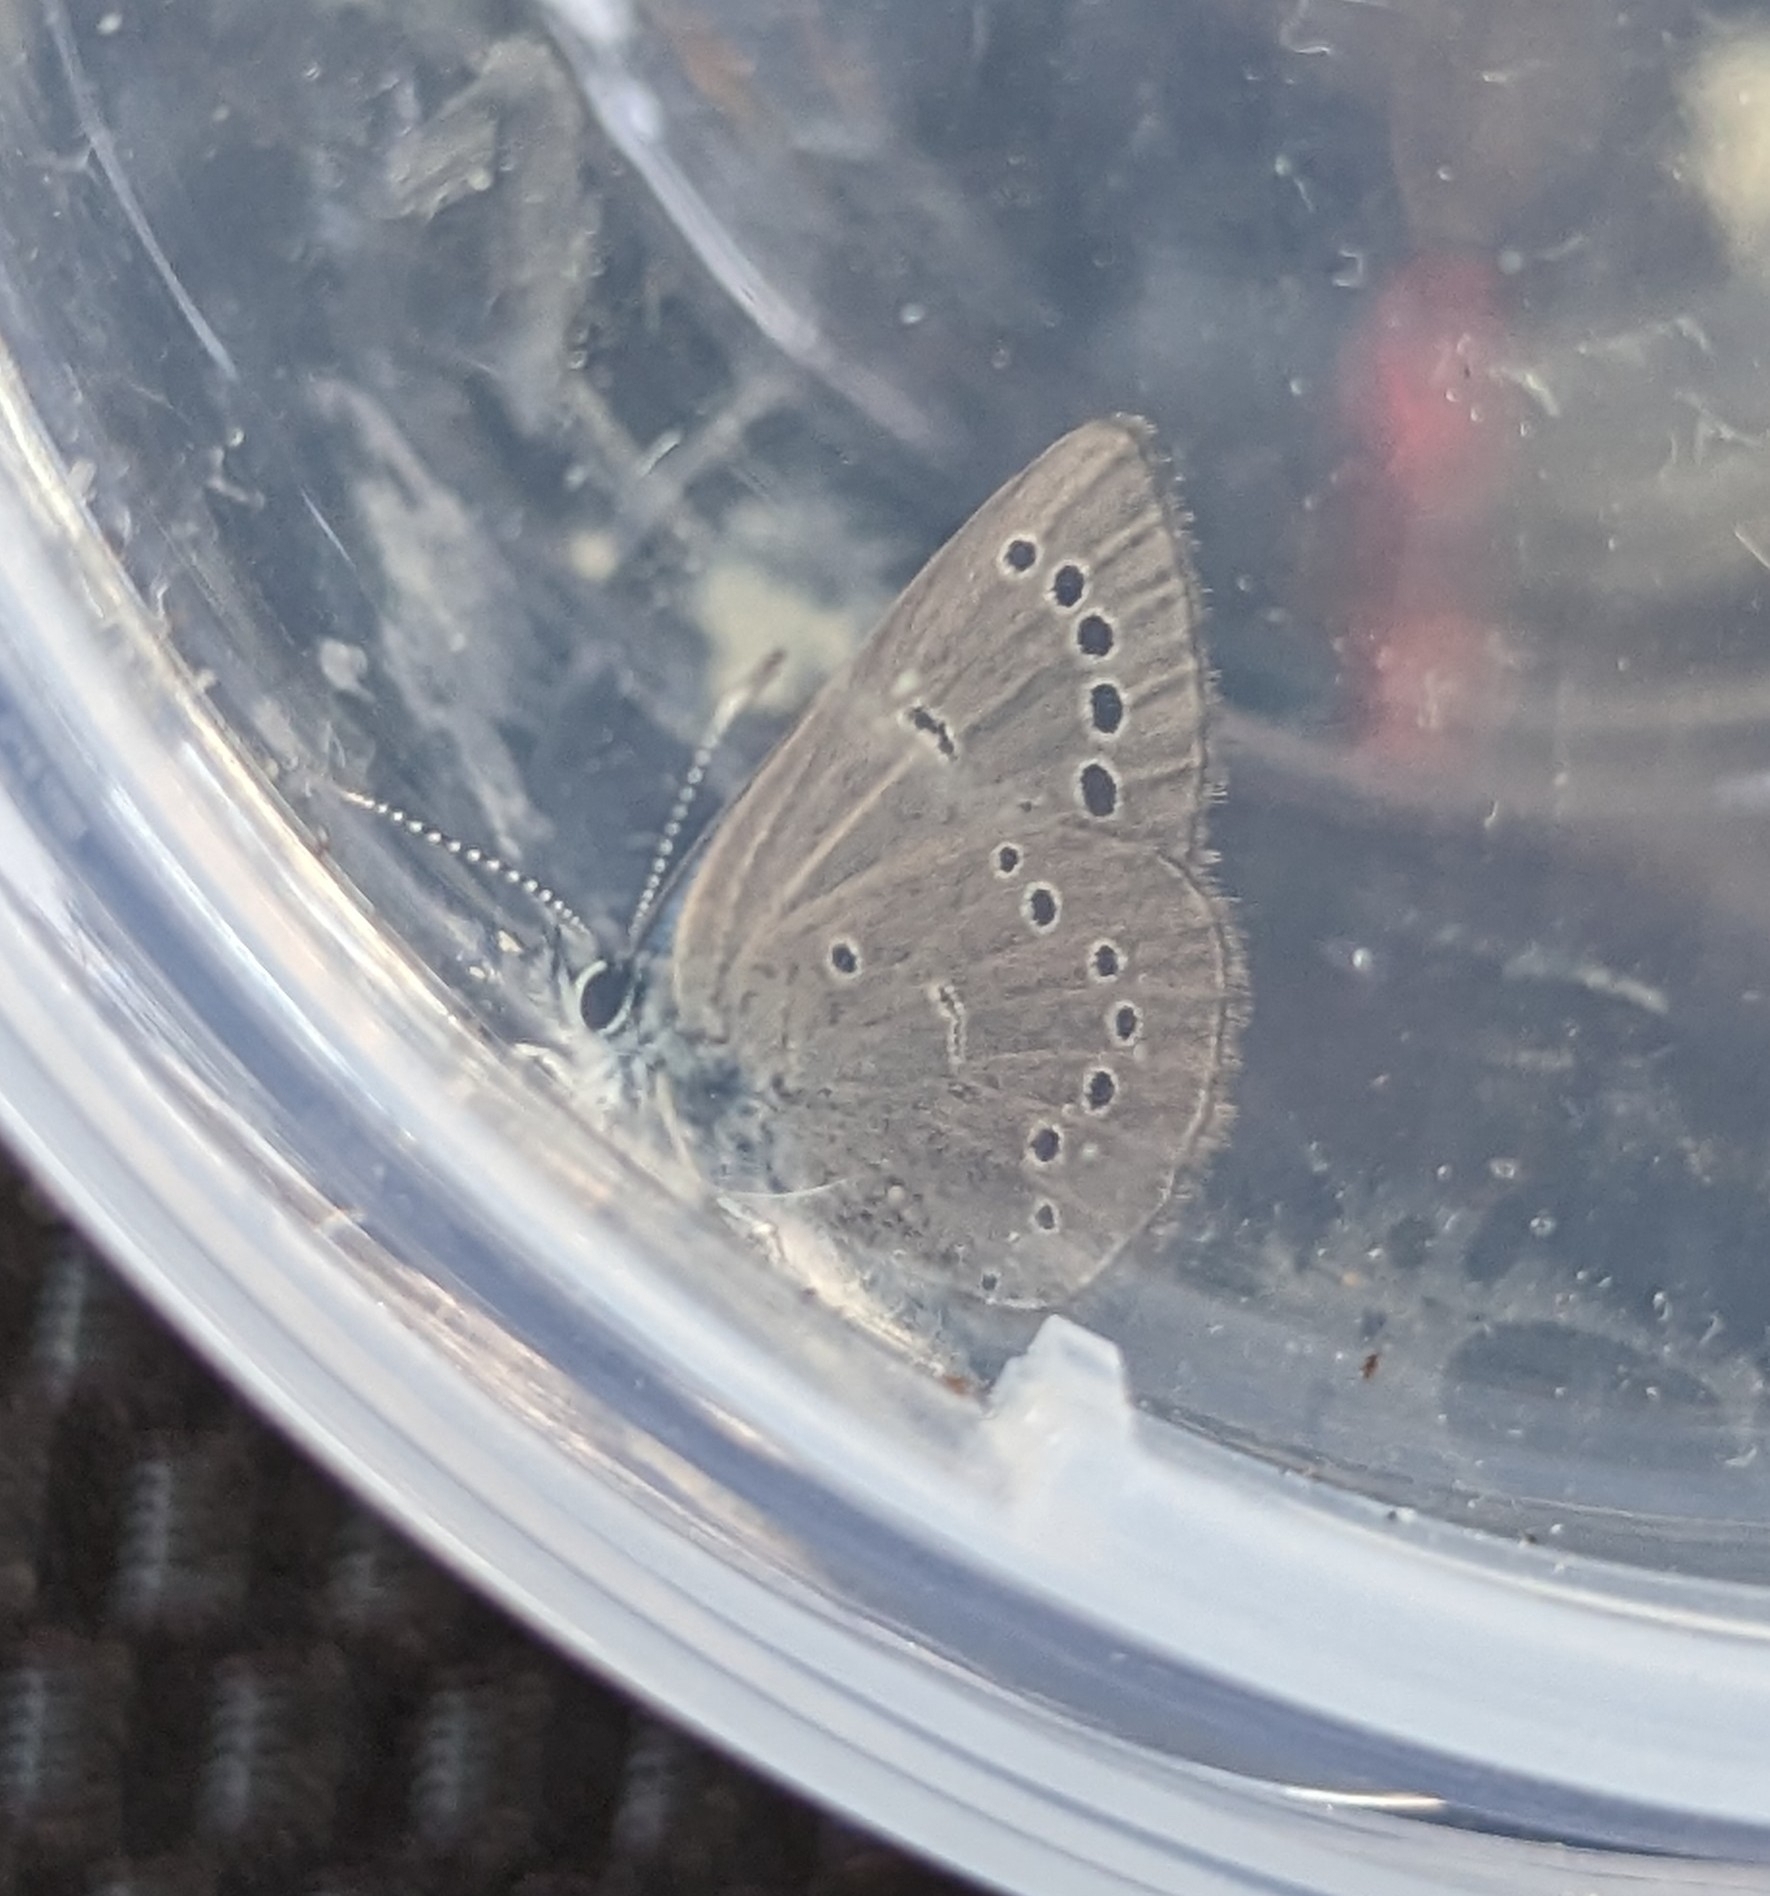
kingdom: Animalia
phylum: Arthropoda
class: Insecta
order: Lepidoptera
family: Lycaenidae
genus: Glaucopsyche
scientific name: Glaucopsyche lygdamus
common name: Silvery blue
